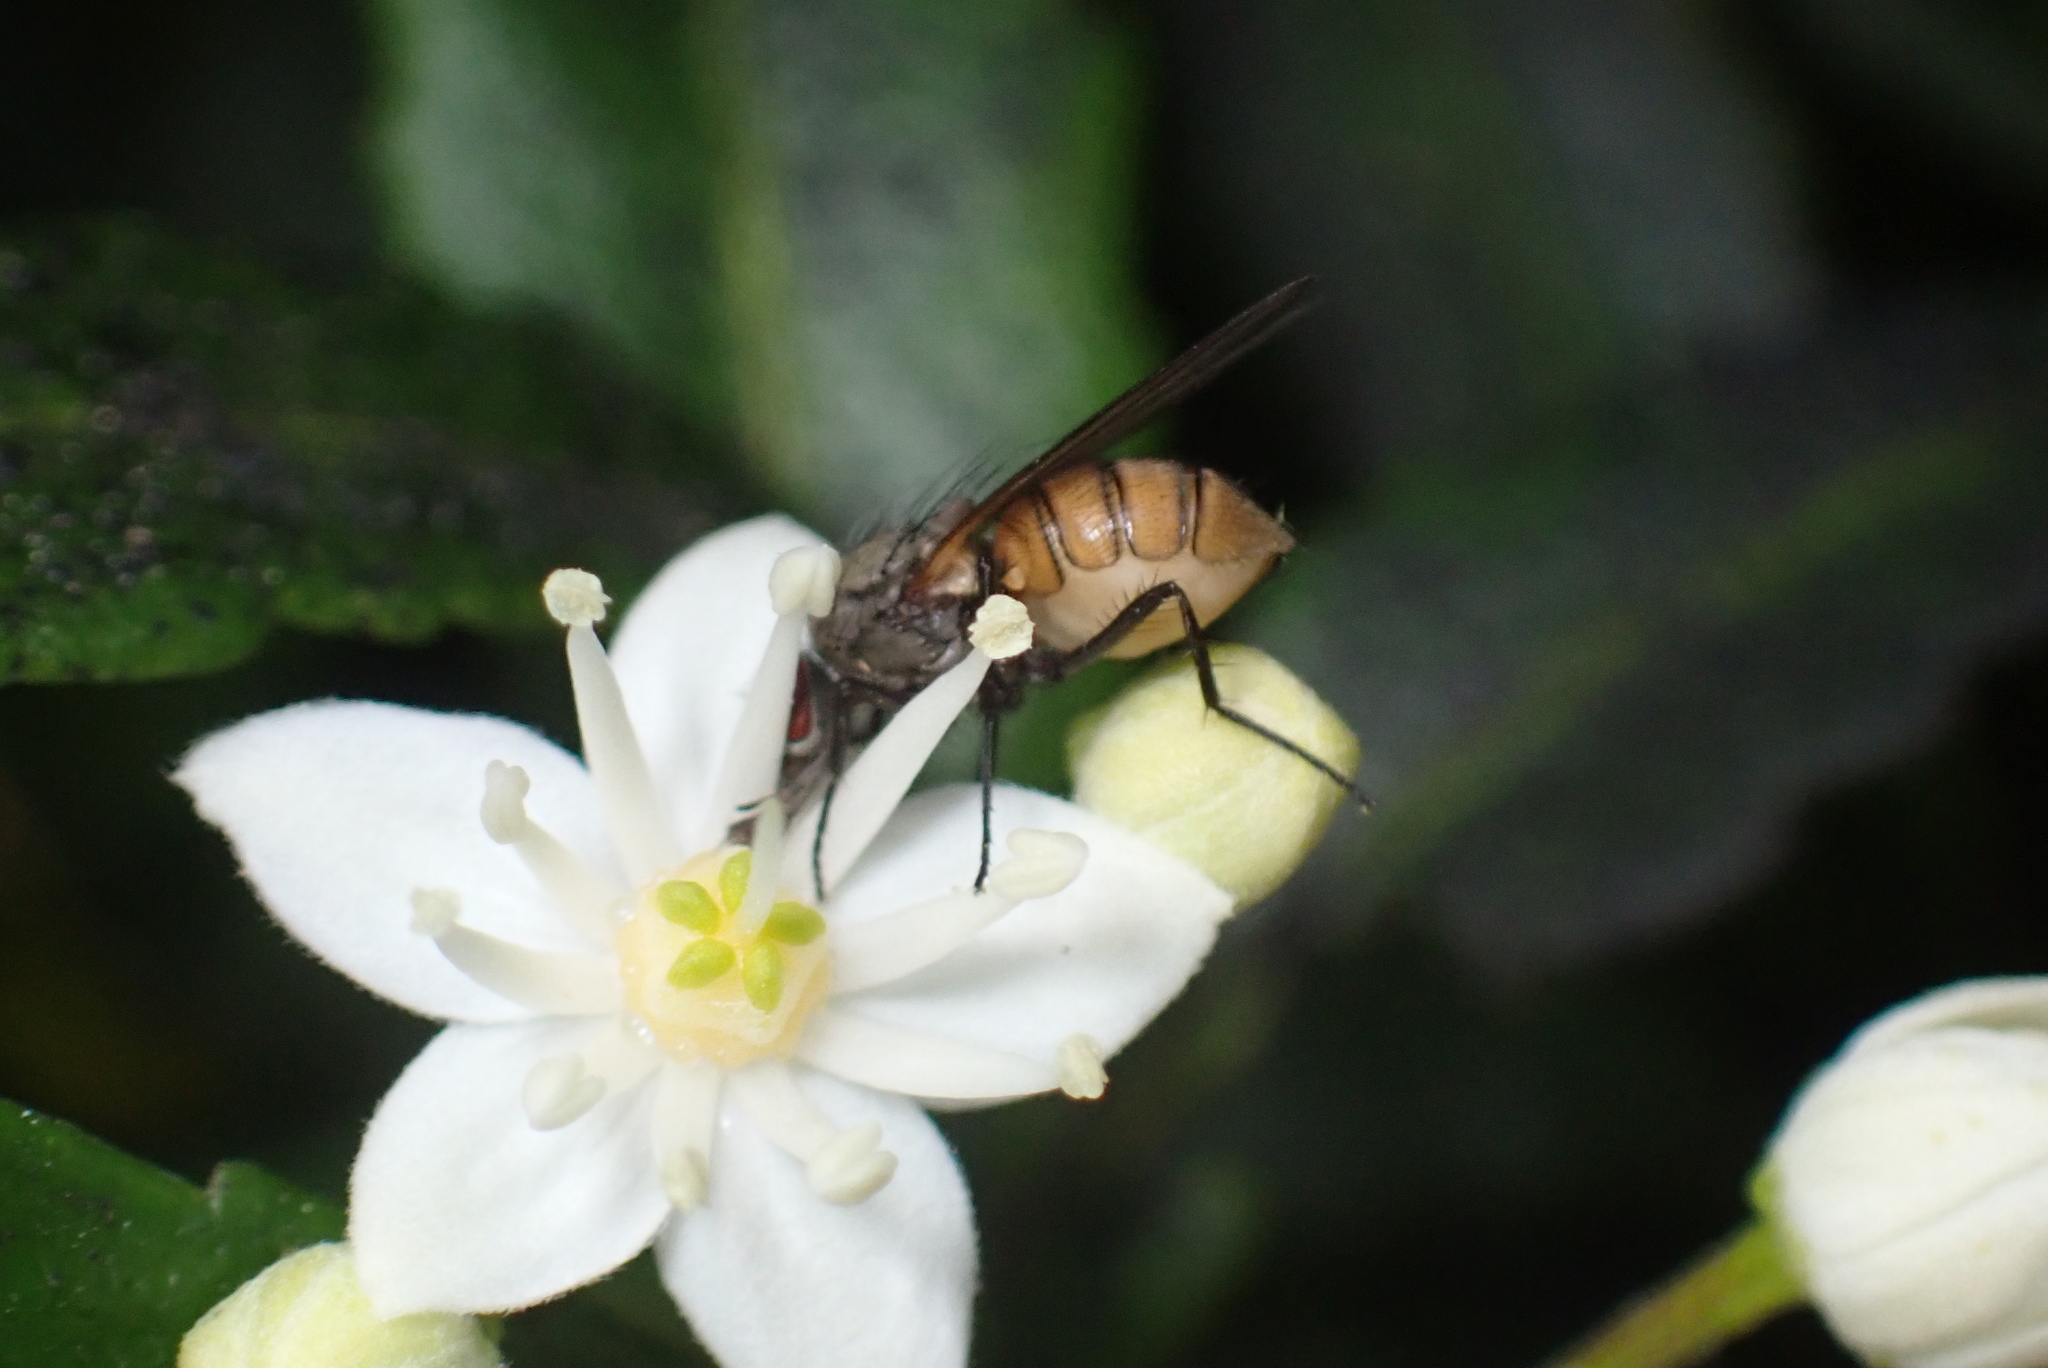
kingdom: Animalia
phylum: Arthropoda
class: Insecta
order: Diptera
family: Muscidae
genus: Thricops
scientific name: Thricops semicinereus
